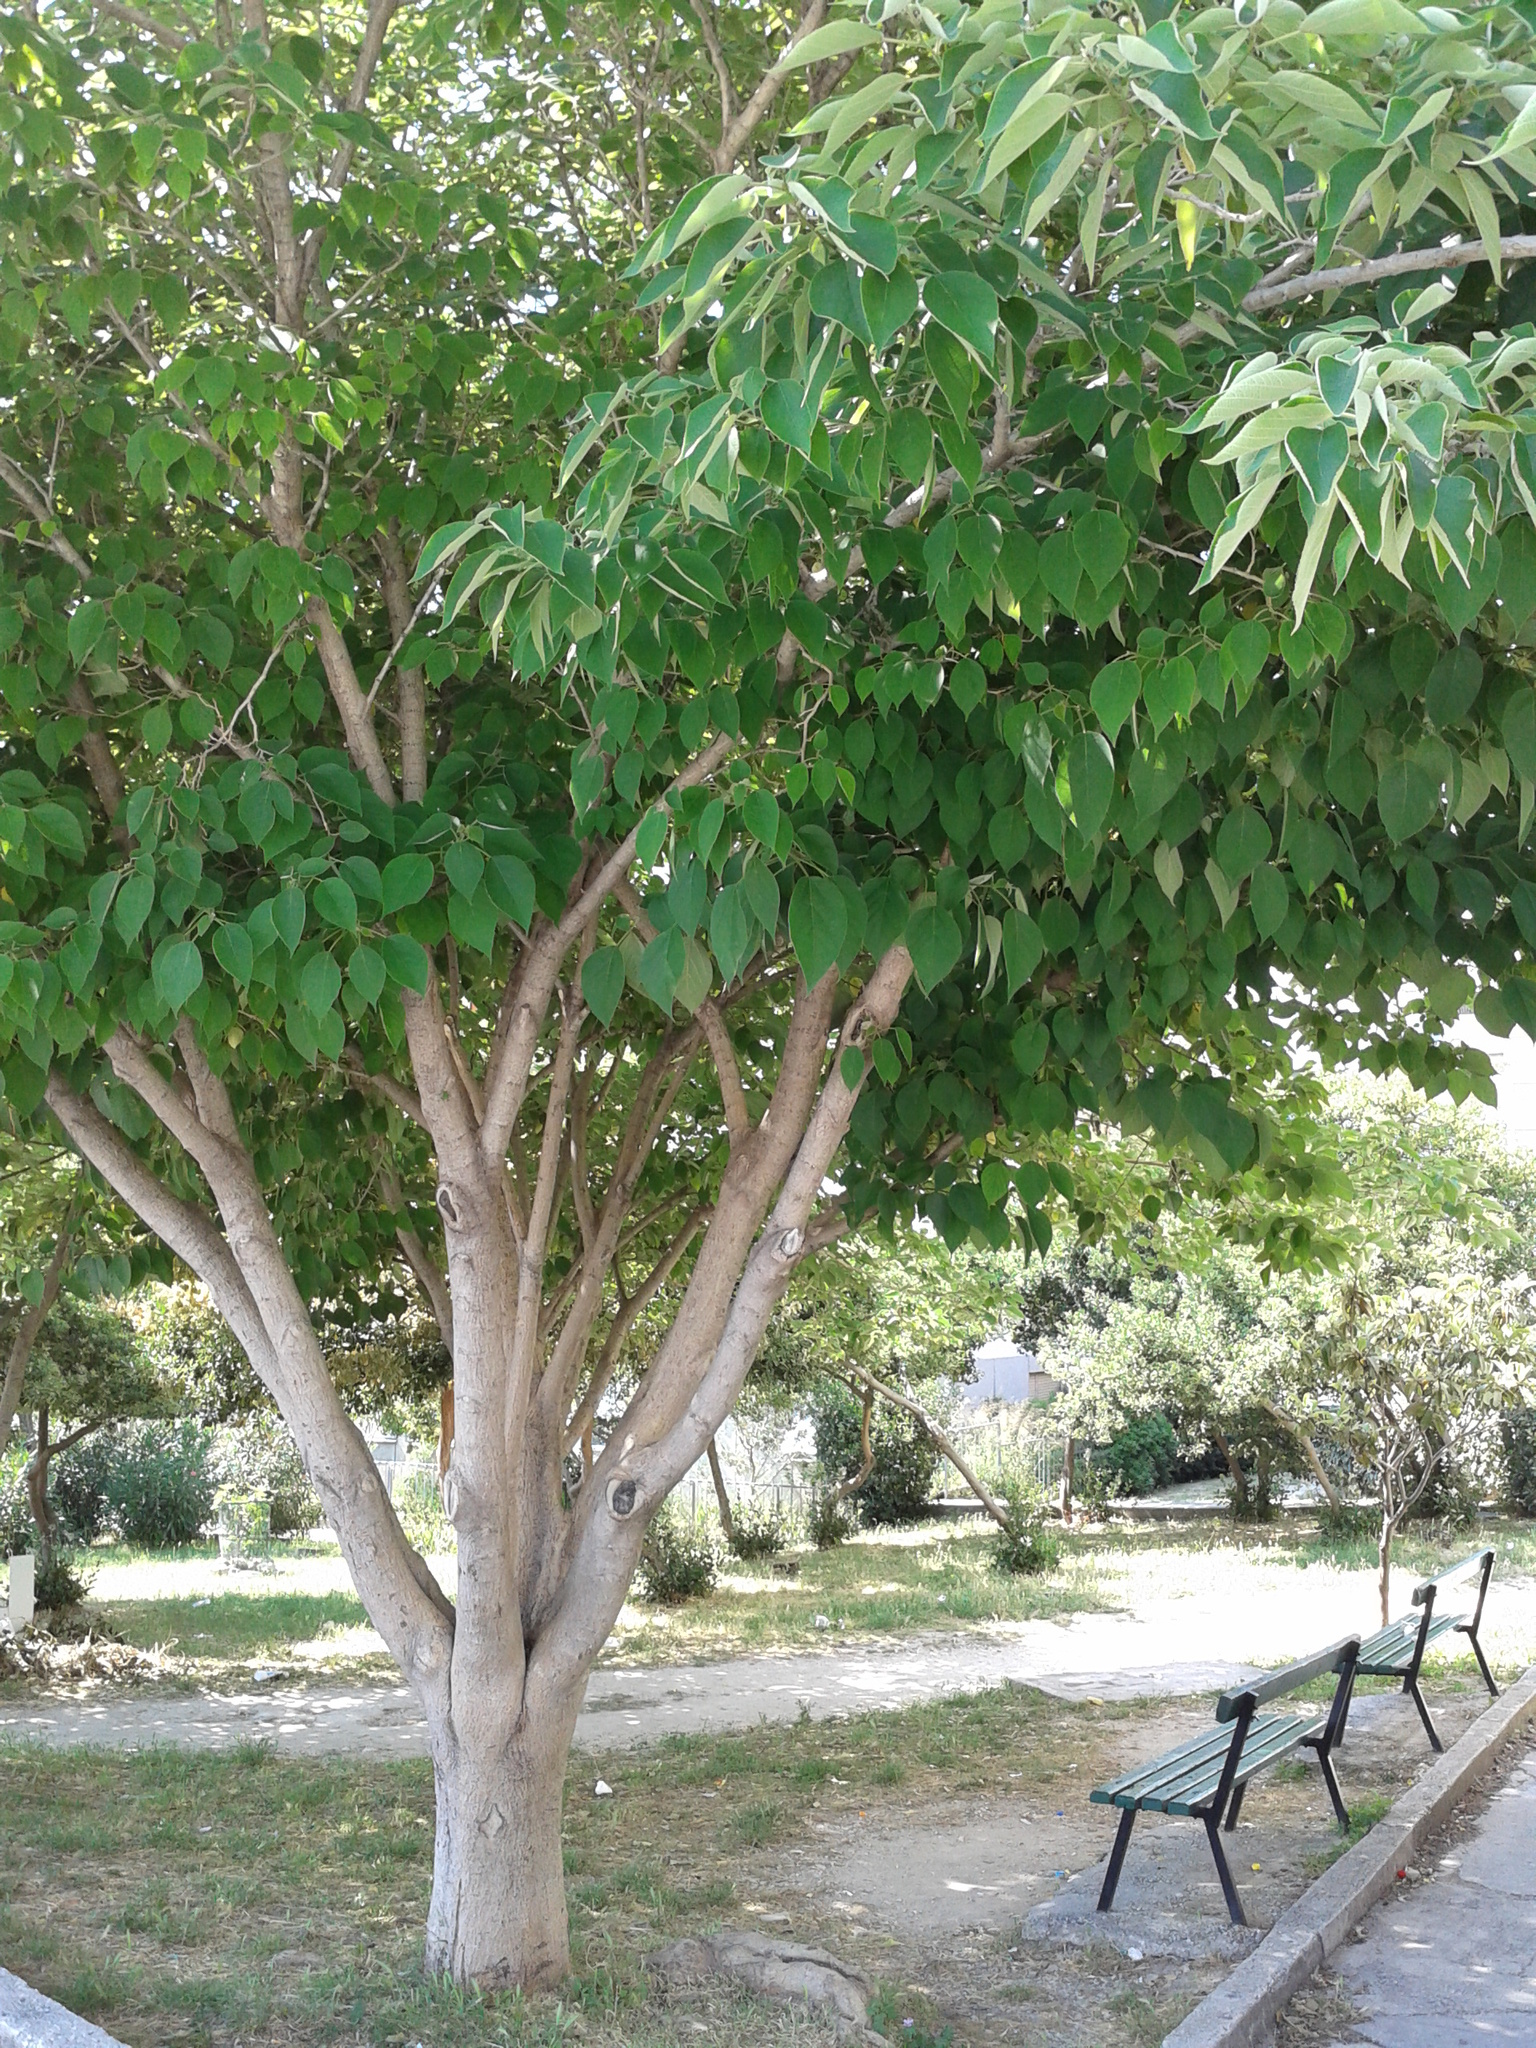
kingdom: Plantae
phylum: Tracheophyta
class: Magnoliopsida
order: Rosales
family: Moraceae
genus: Broussonetia
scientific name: Broussonetia papyrifera
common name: Paper mulberry
